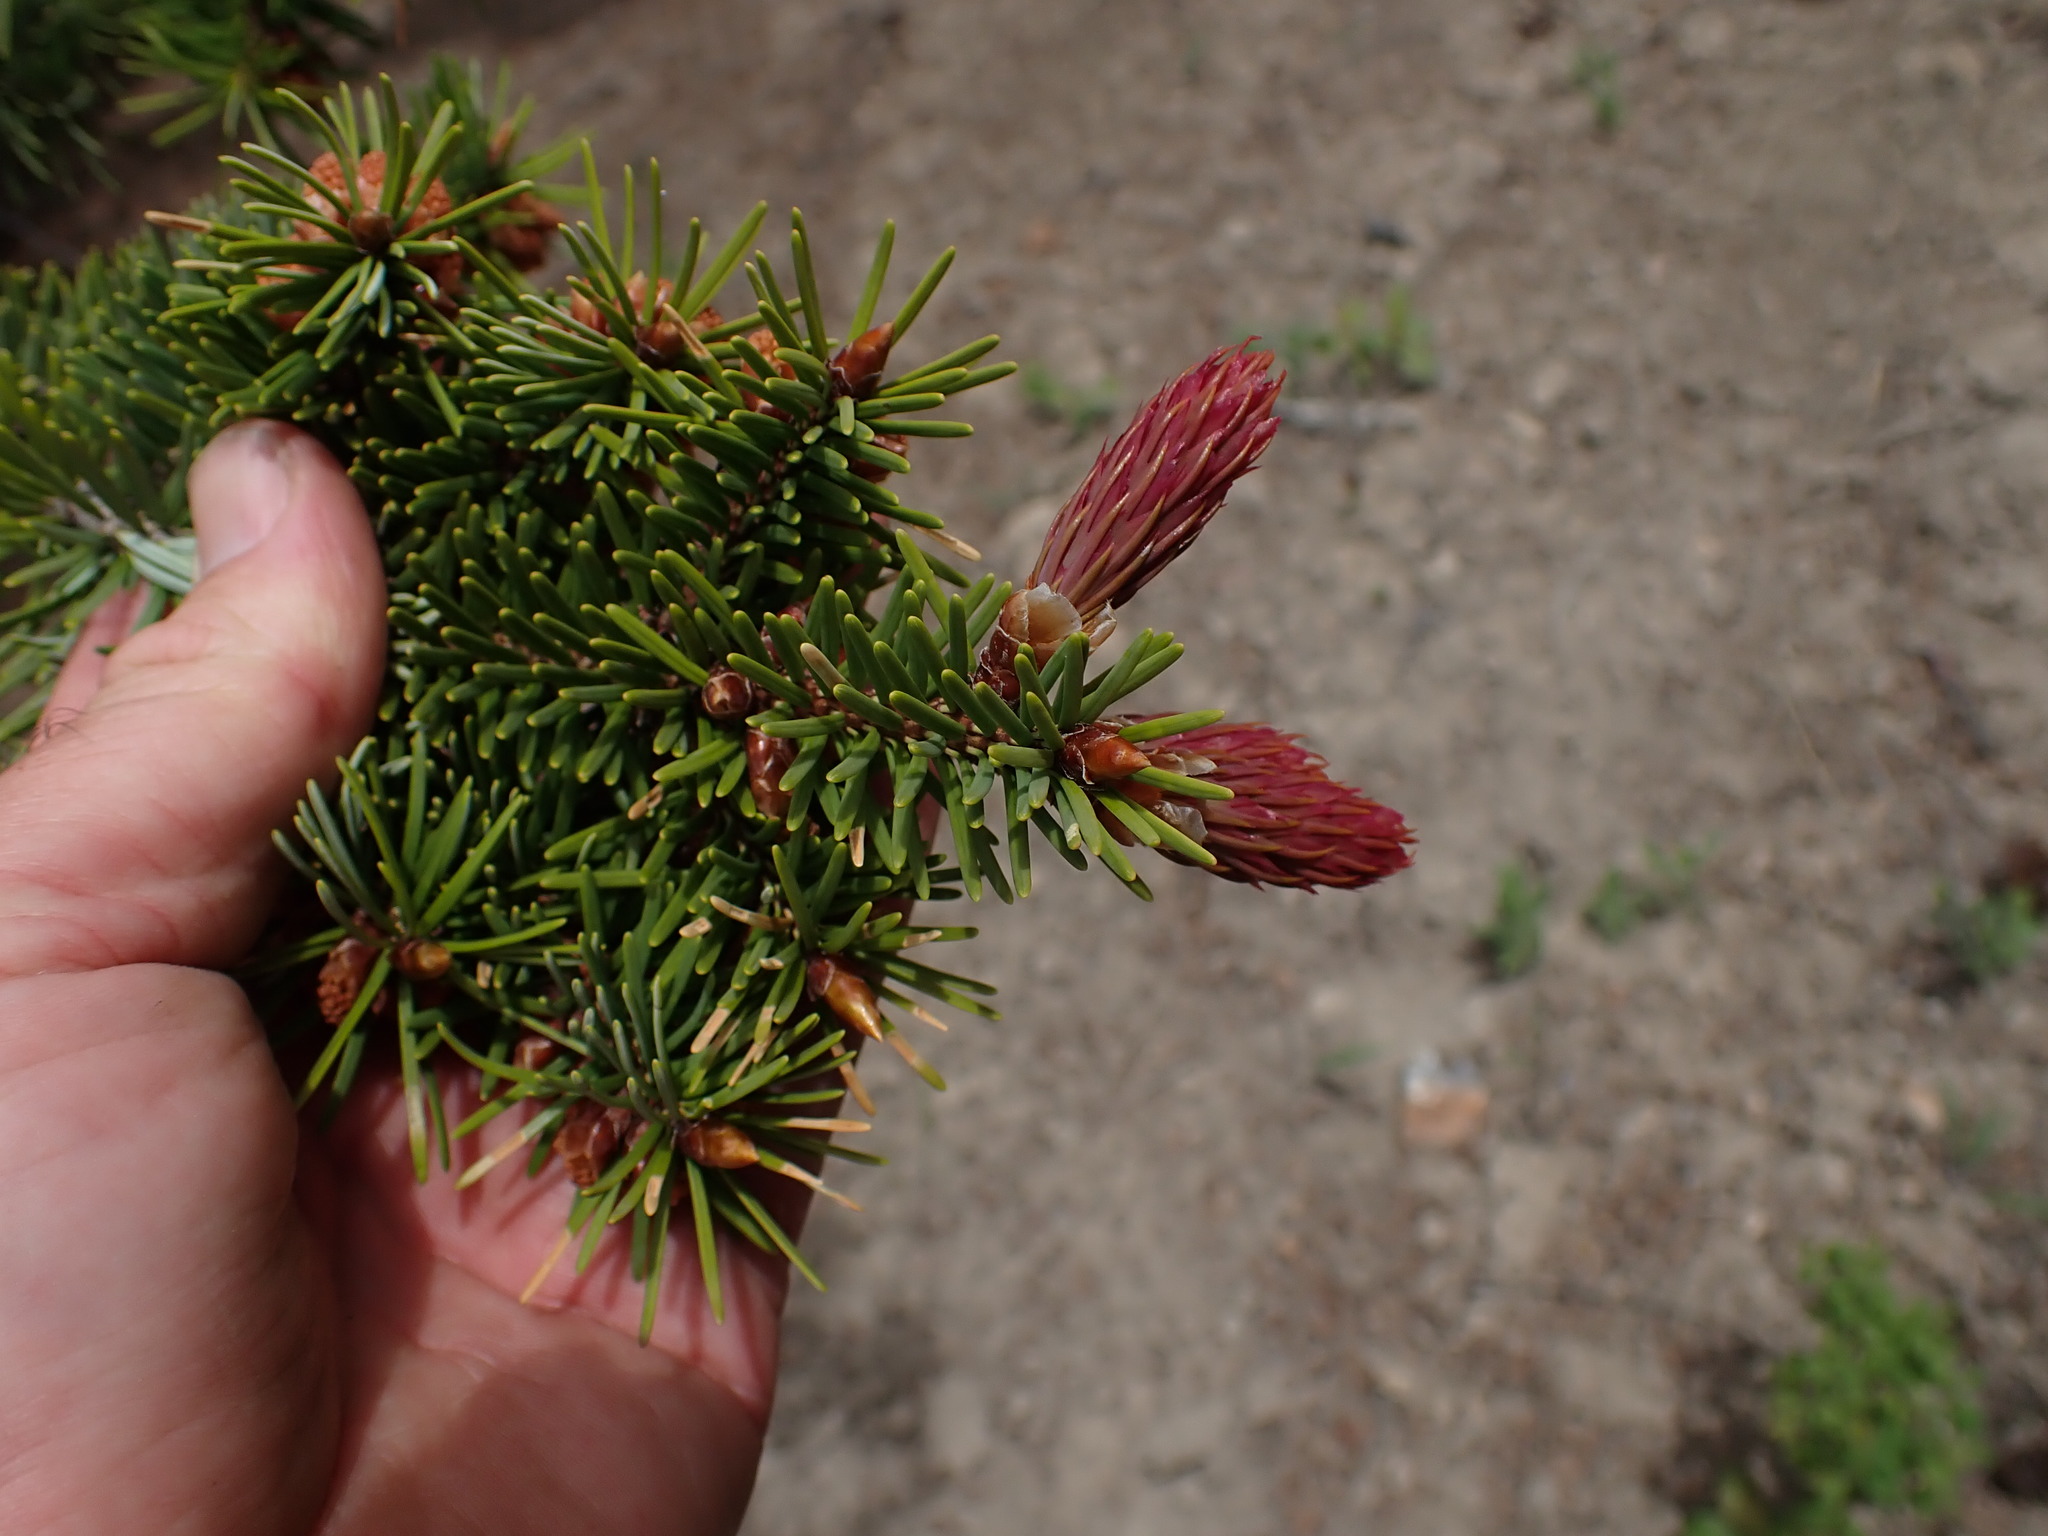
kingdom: Plantae
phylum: Tracheophyta
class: Pinopsida
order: Pinales
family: Pinaceae
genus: Pseudotsuga
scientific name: Pseudotsuga menziesii
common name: Douglas fir
